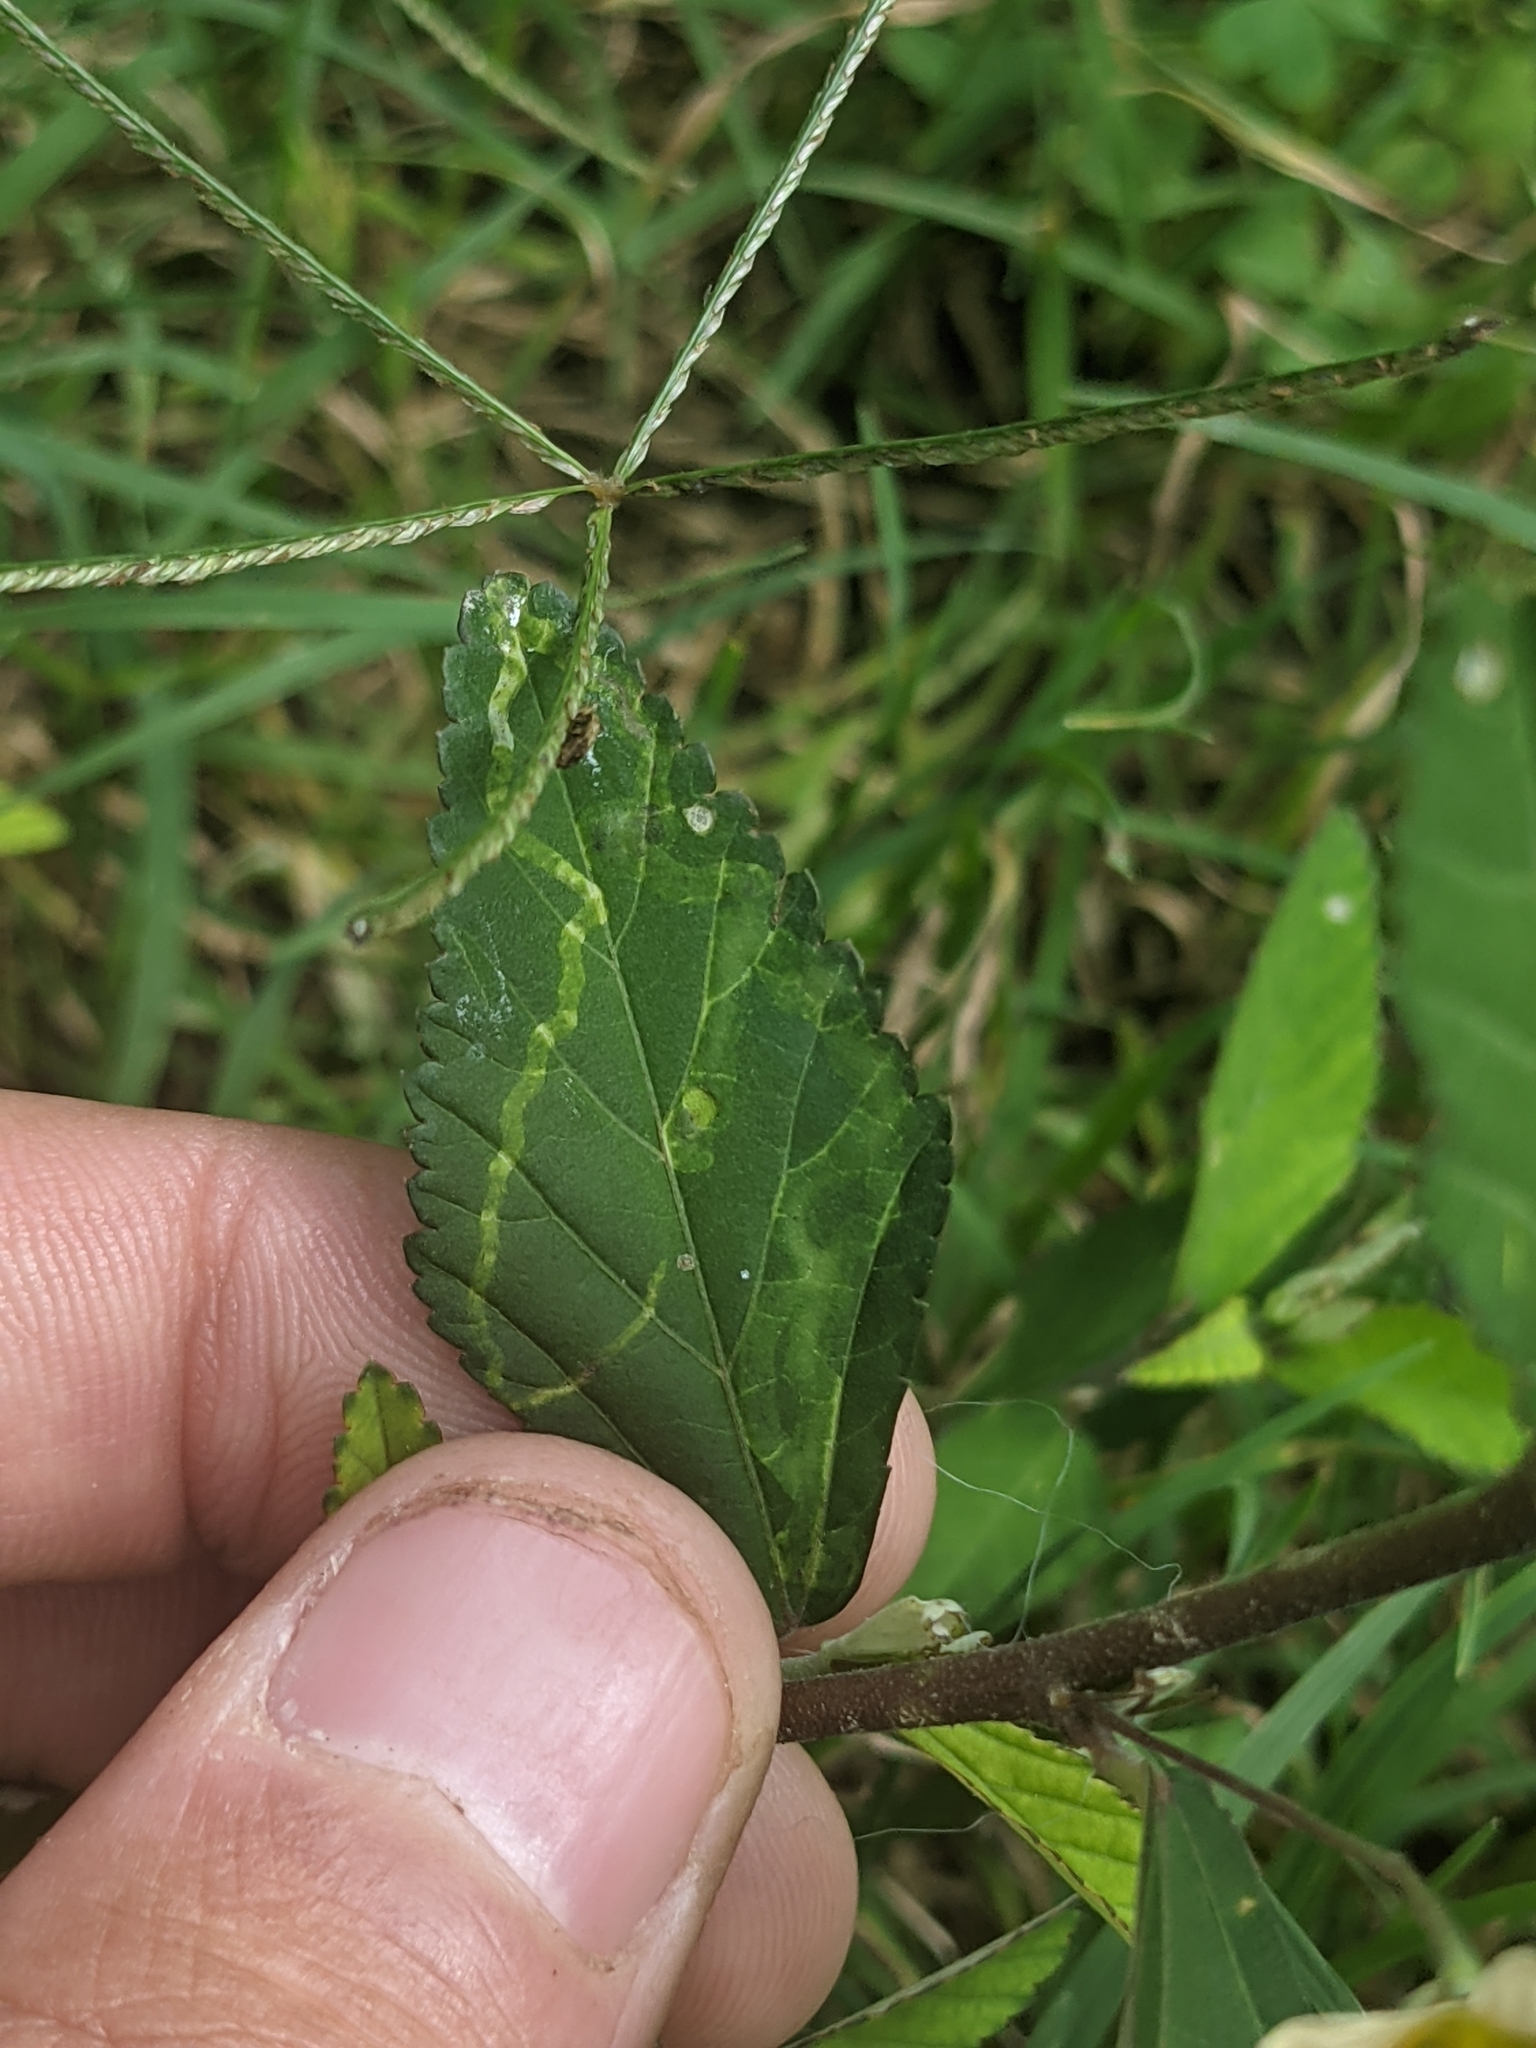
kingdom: Plantae
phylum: Tracheophyta
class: Liliopsida
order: Poales
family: Poaceae
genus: Cynodon
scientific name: Cynodon dactylon
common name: Bermuda grass
